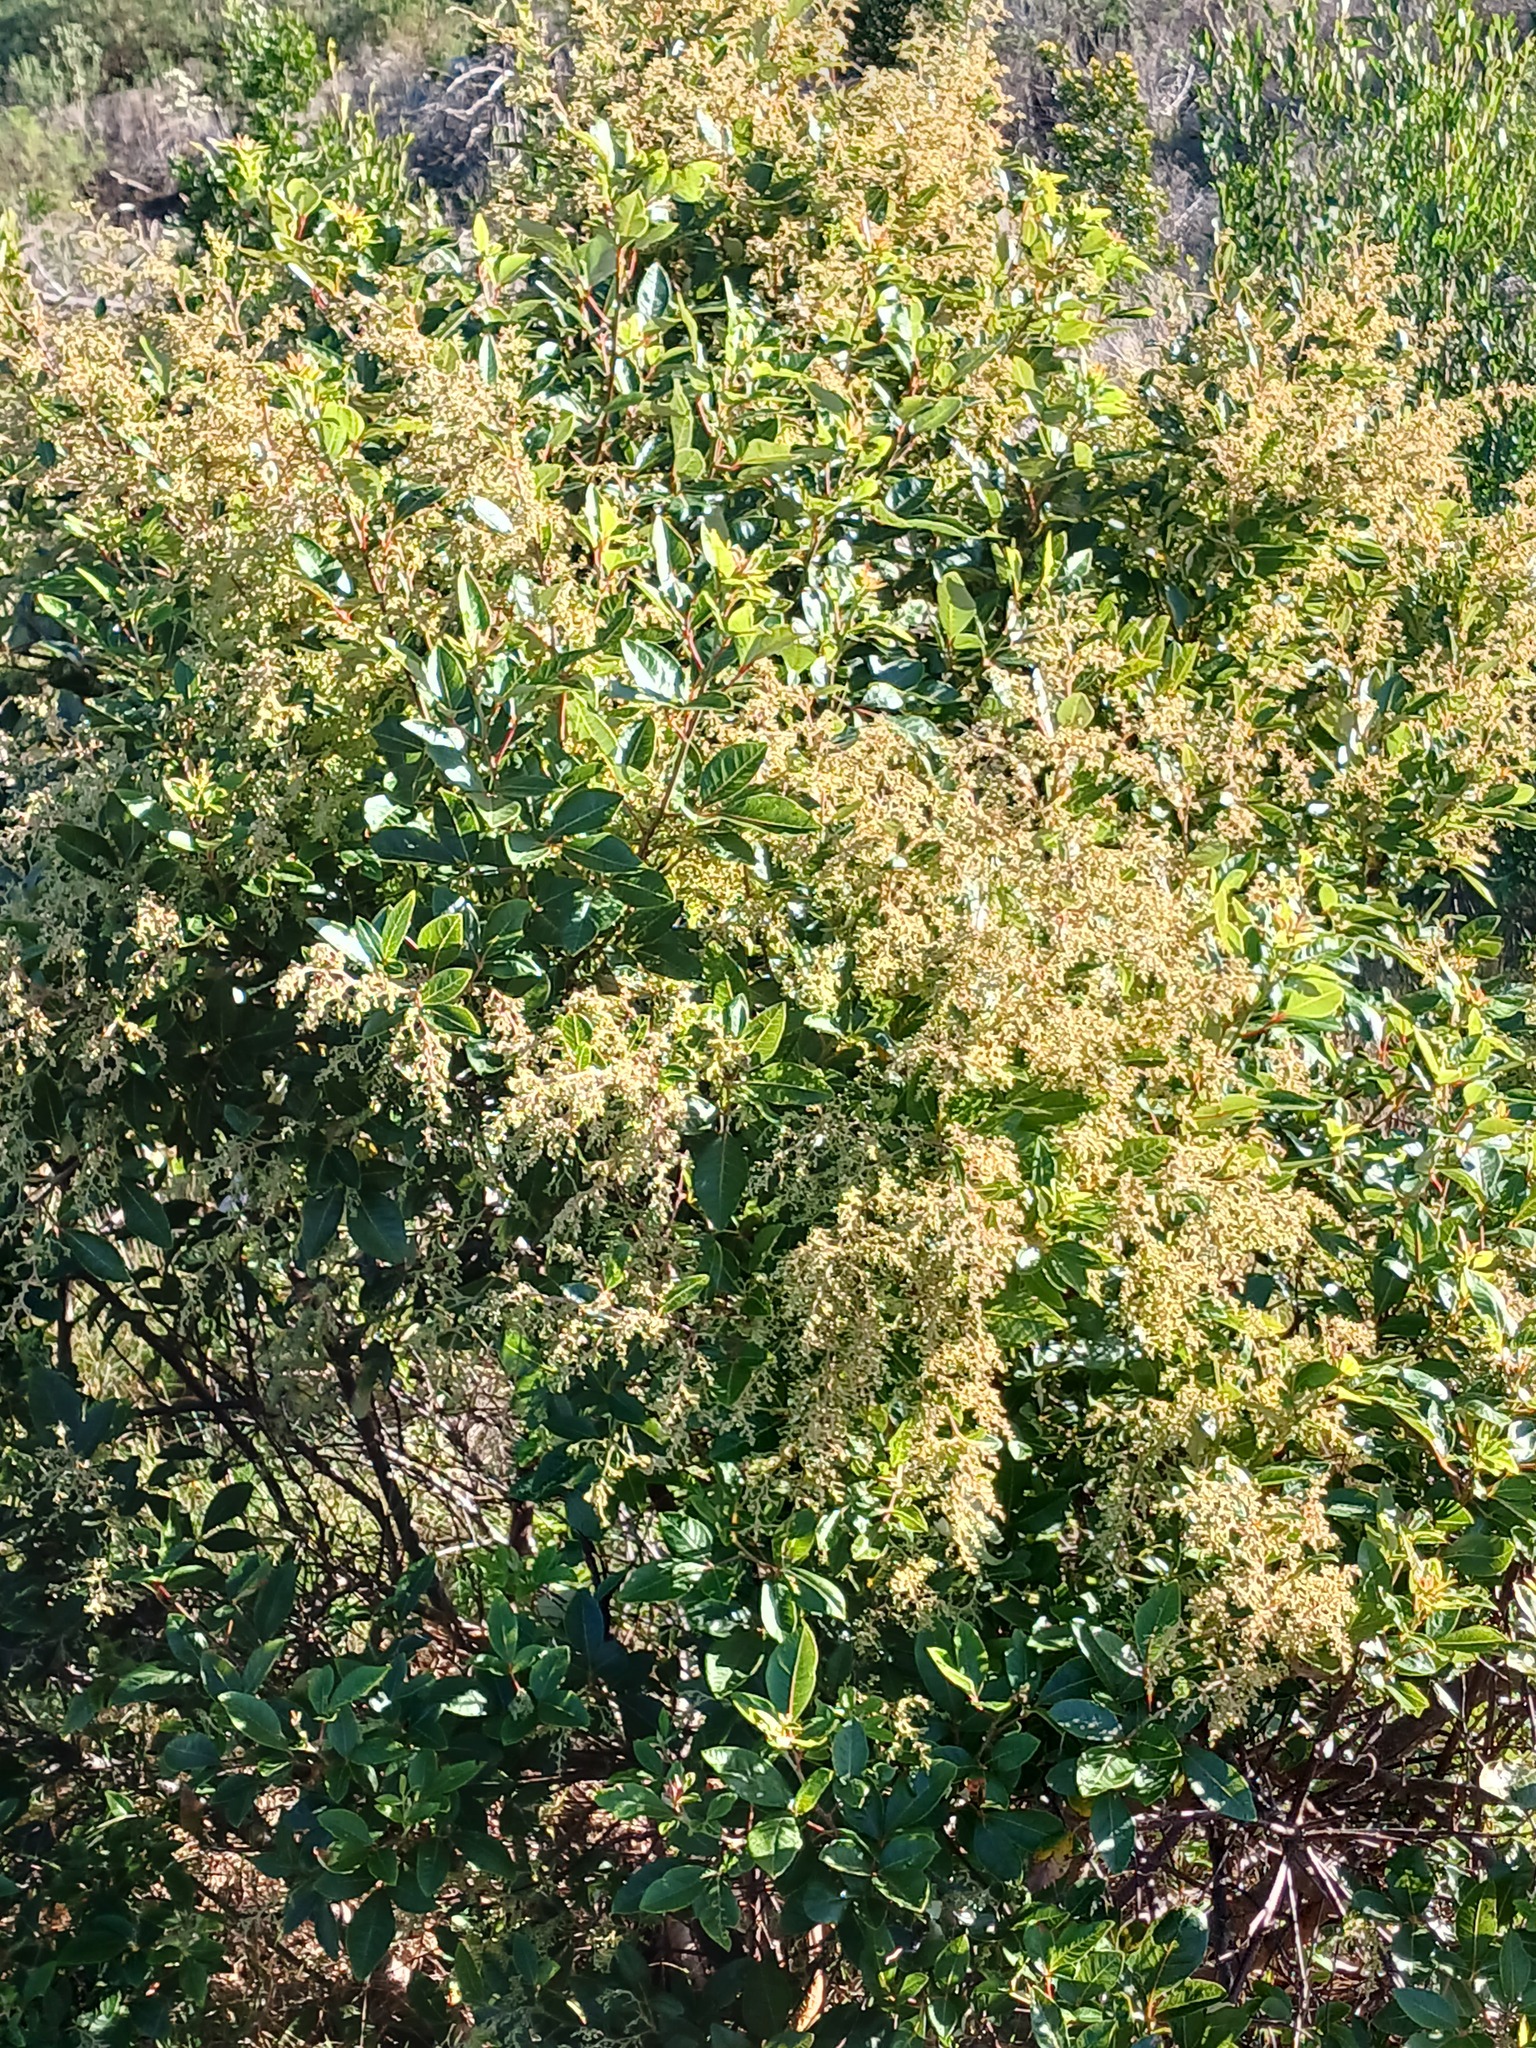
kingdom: Plantae
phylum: Tracheophyta
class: Magnoliopsida
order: Sapindales
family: Anacardiaceae
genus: Searsia
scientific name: Searsia tomentosa
